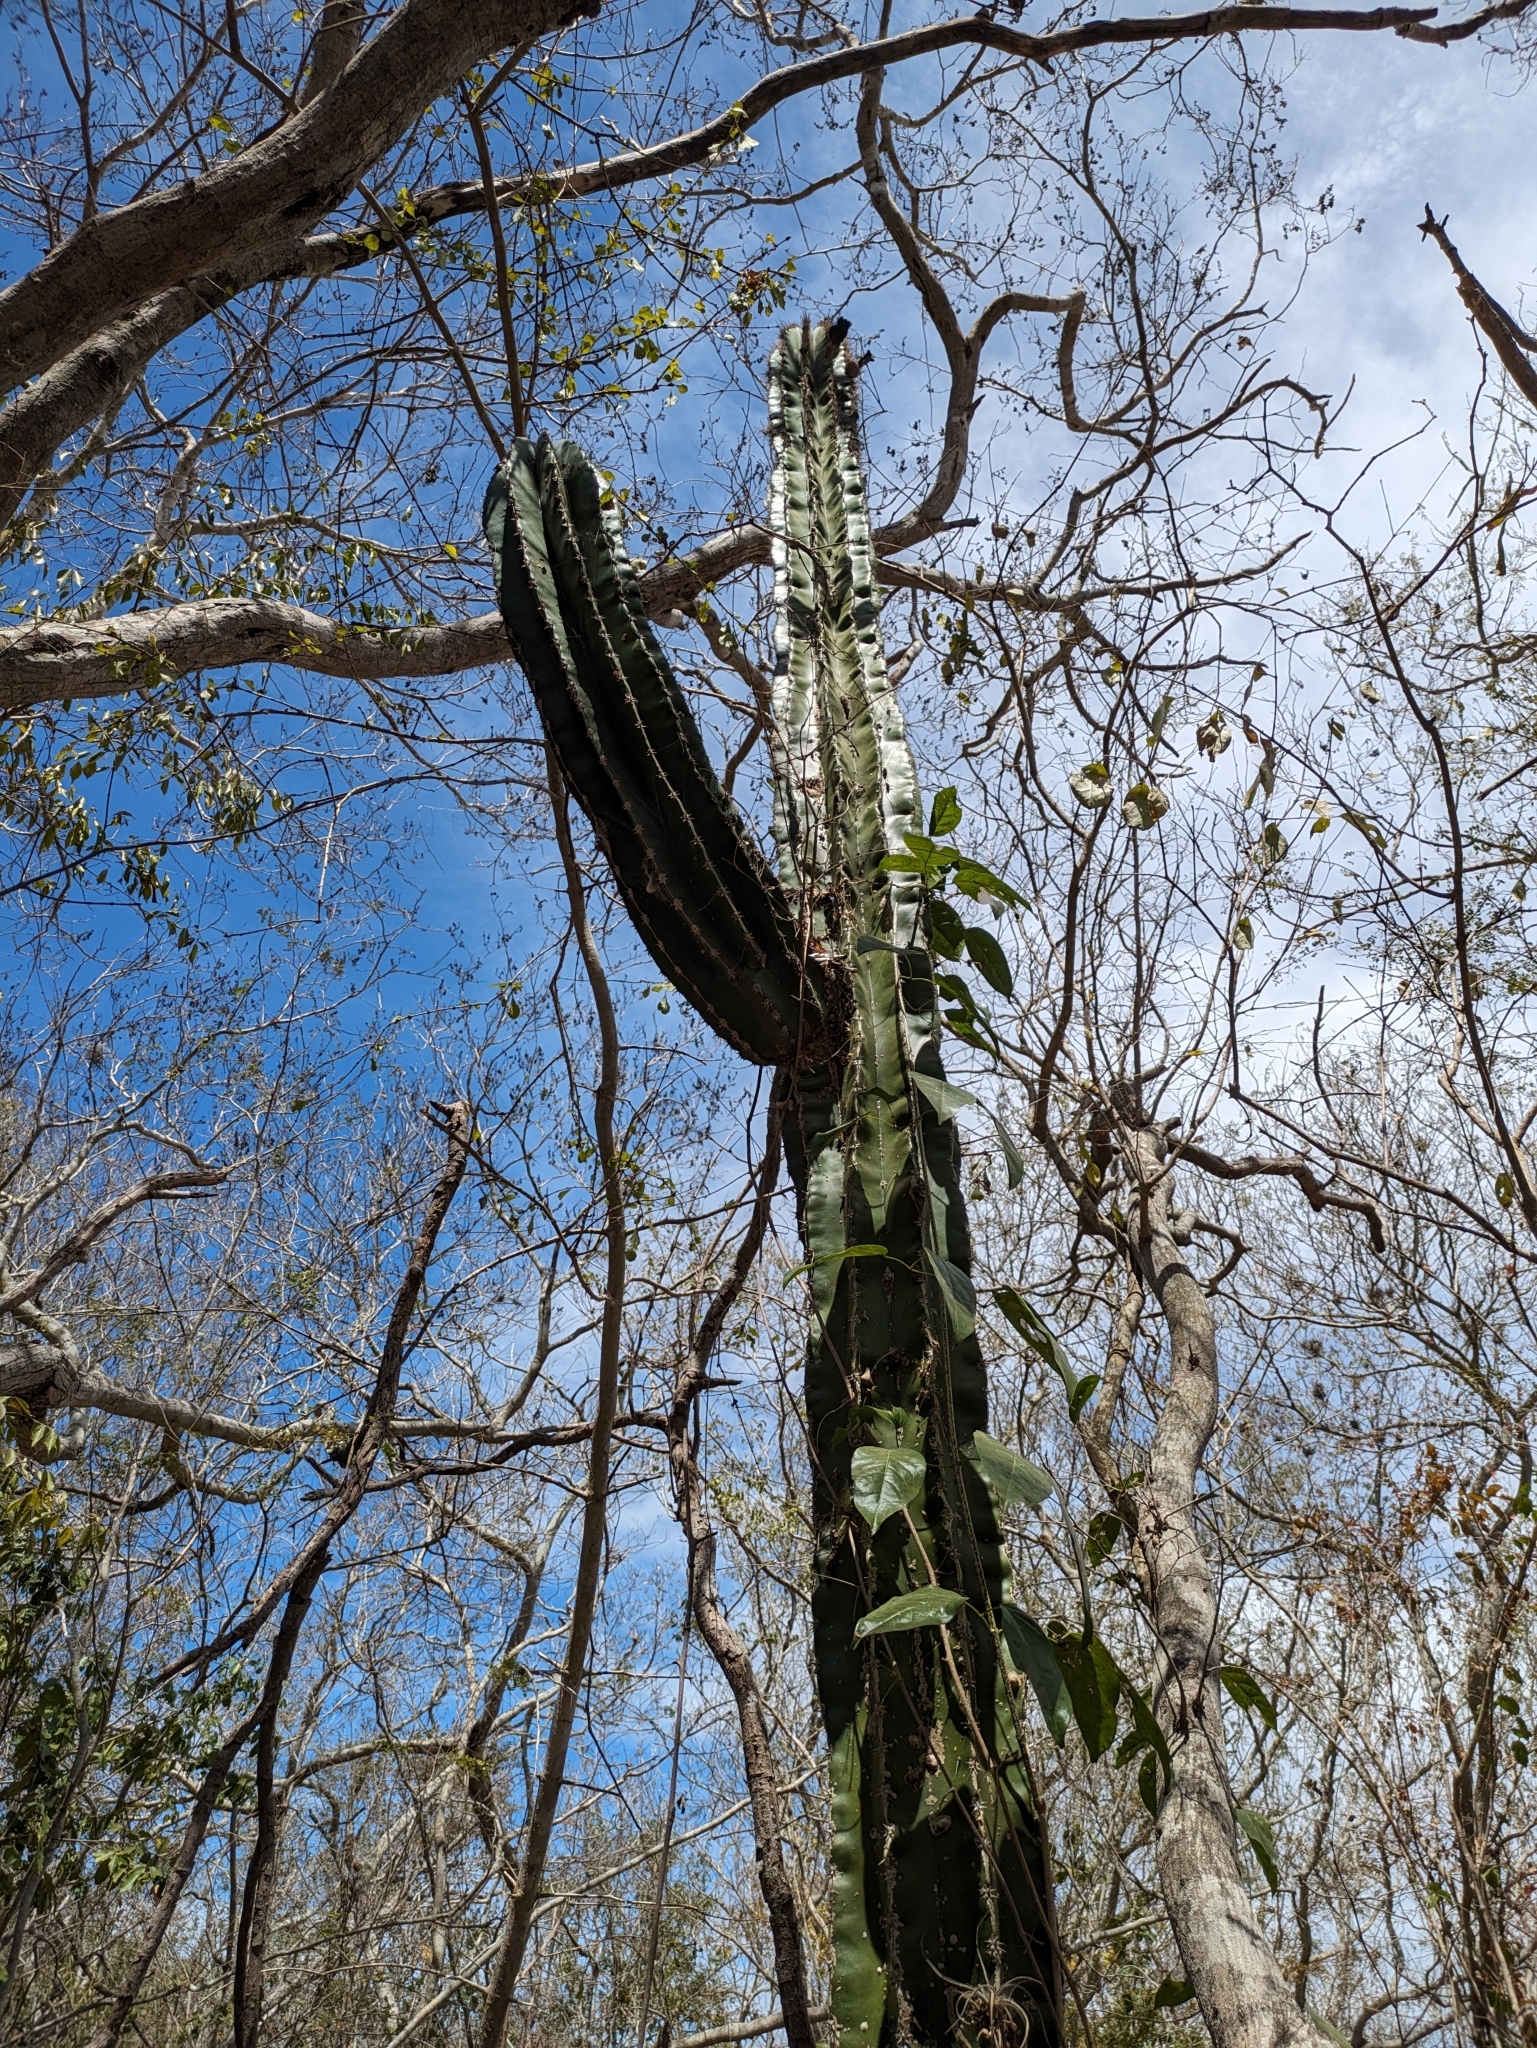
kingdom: Plantae
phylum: Tracheophyta
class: Magnoliopsida
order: Caryophyllales
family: Cactaceae
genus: Pachycereus
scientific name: Pachycereus pecten-aboriginum
